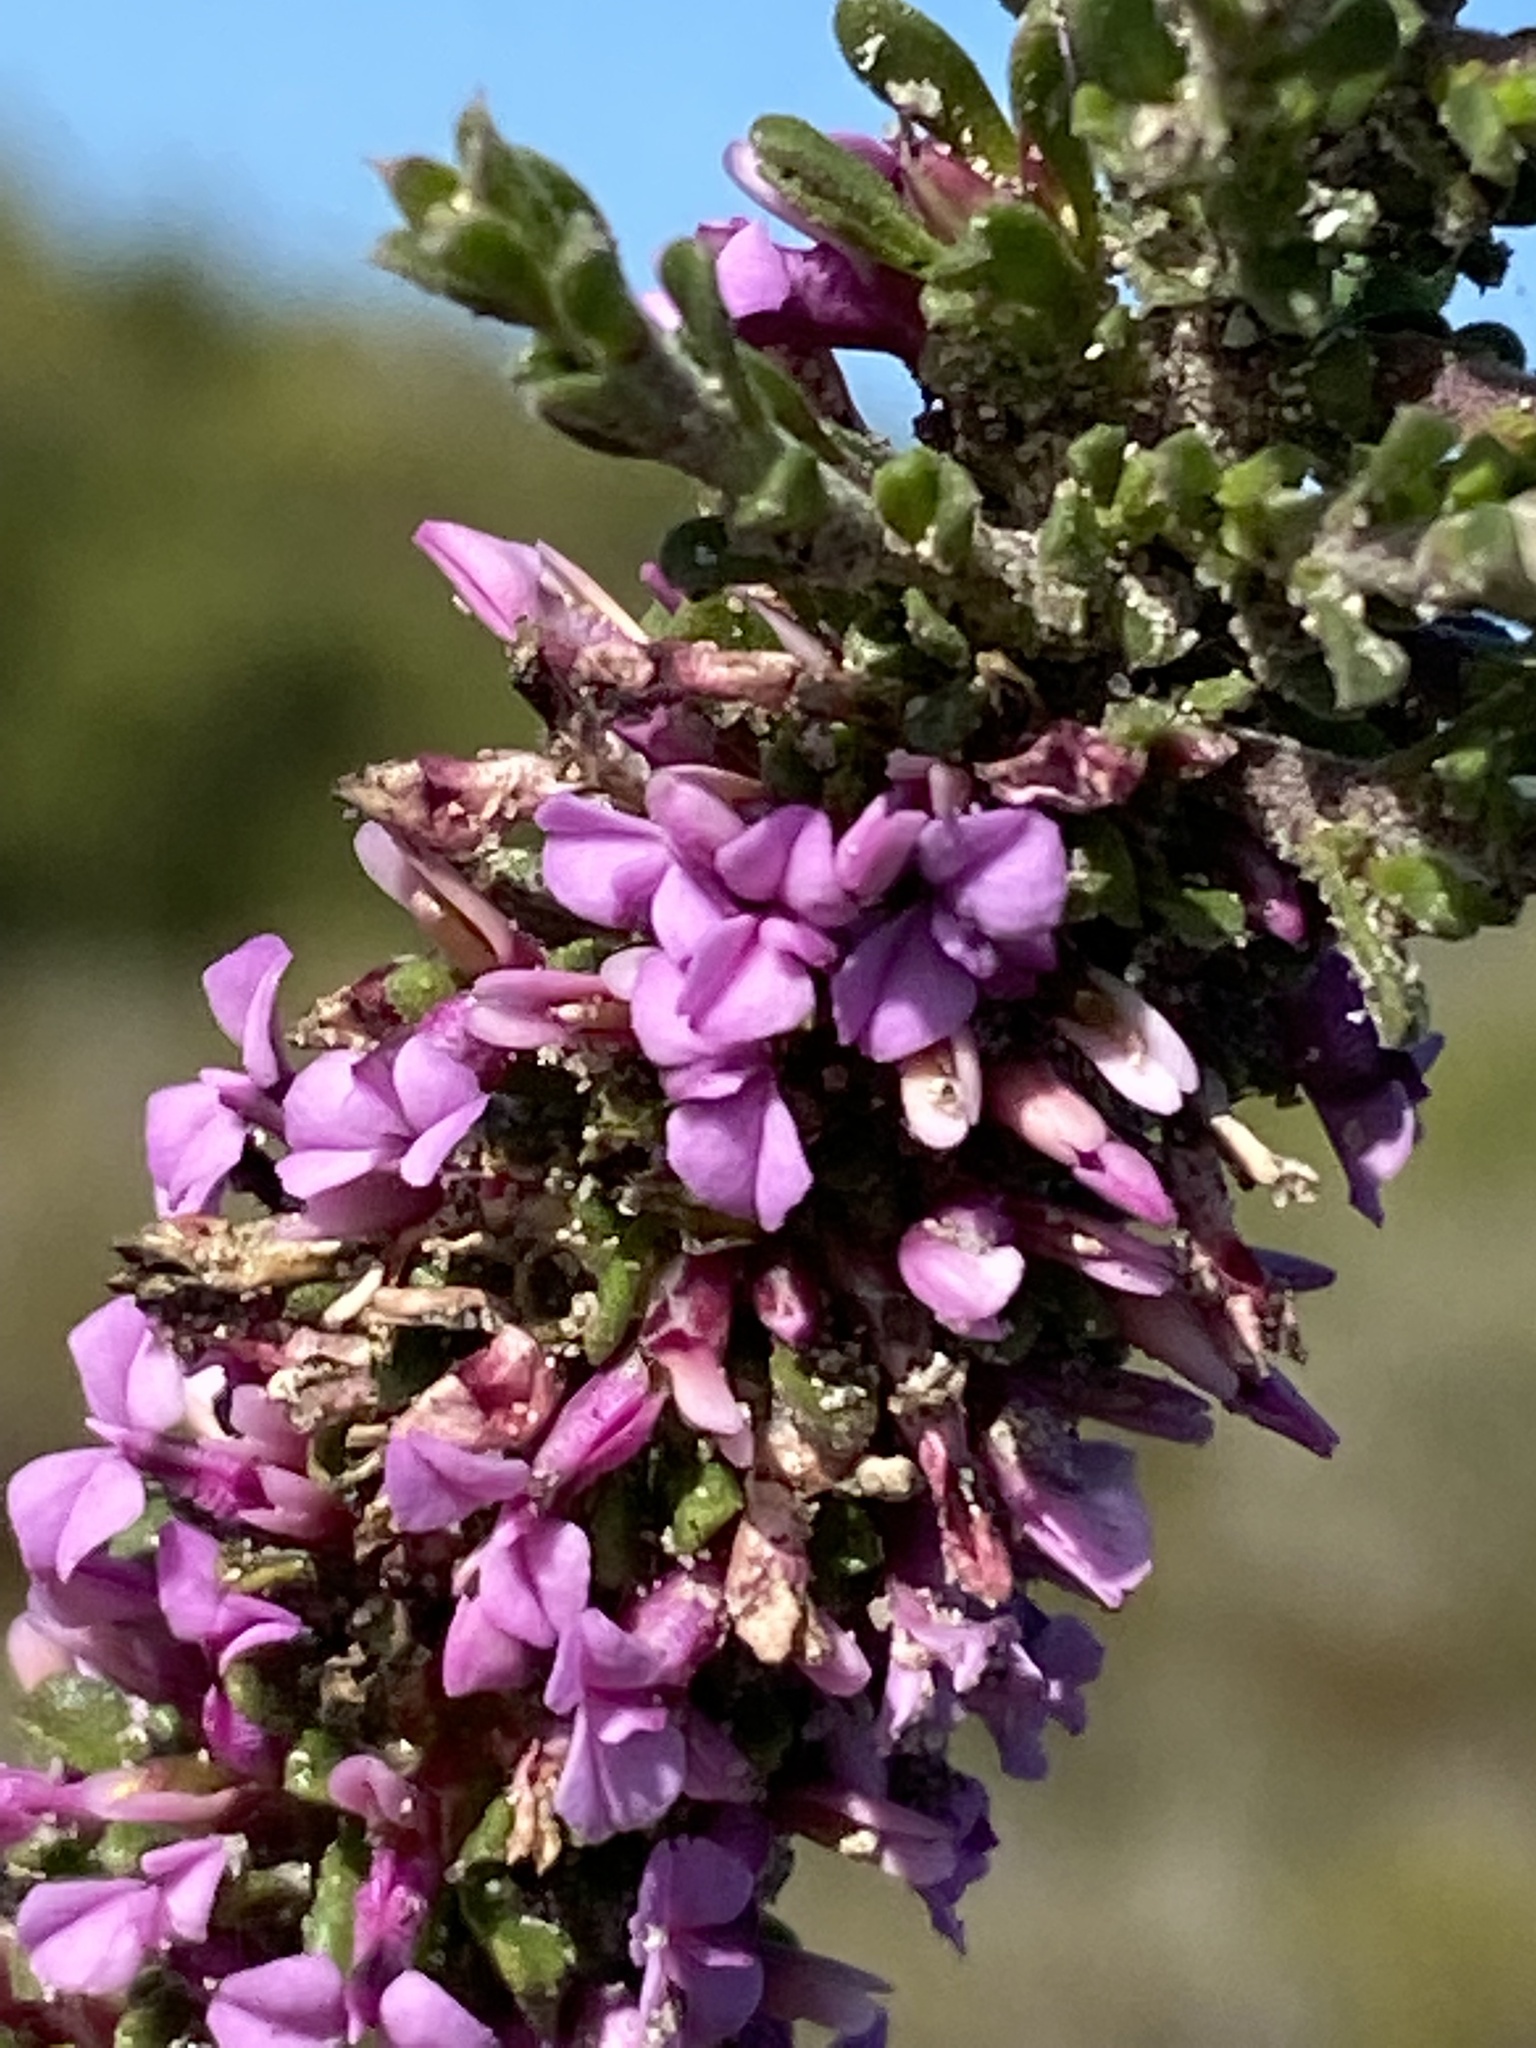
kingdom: Plantae
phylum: Tracheophyta
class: Magnoliopsida
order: Fabales
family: Polygalaceae
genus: Muraltia
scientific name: Muraltia barkerae
